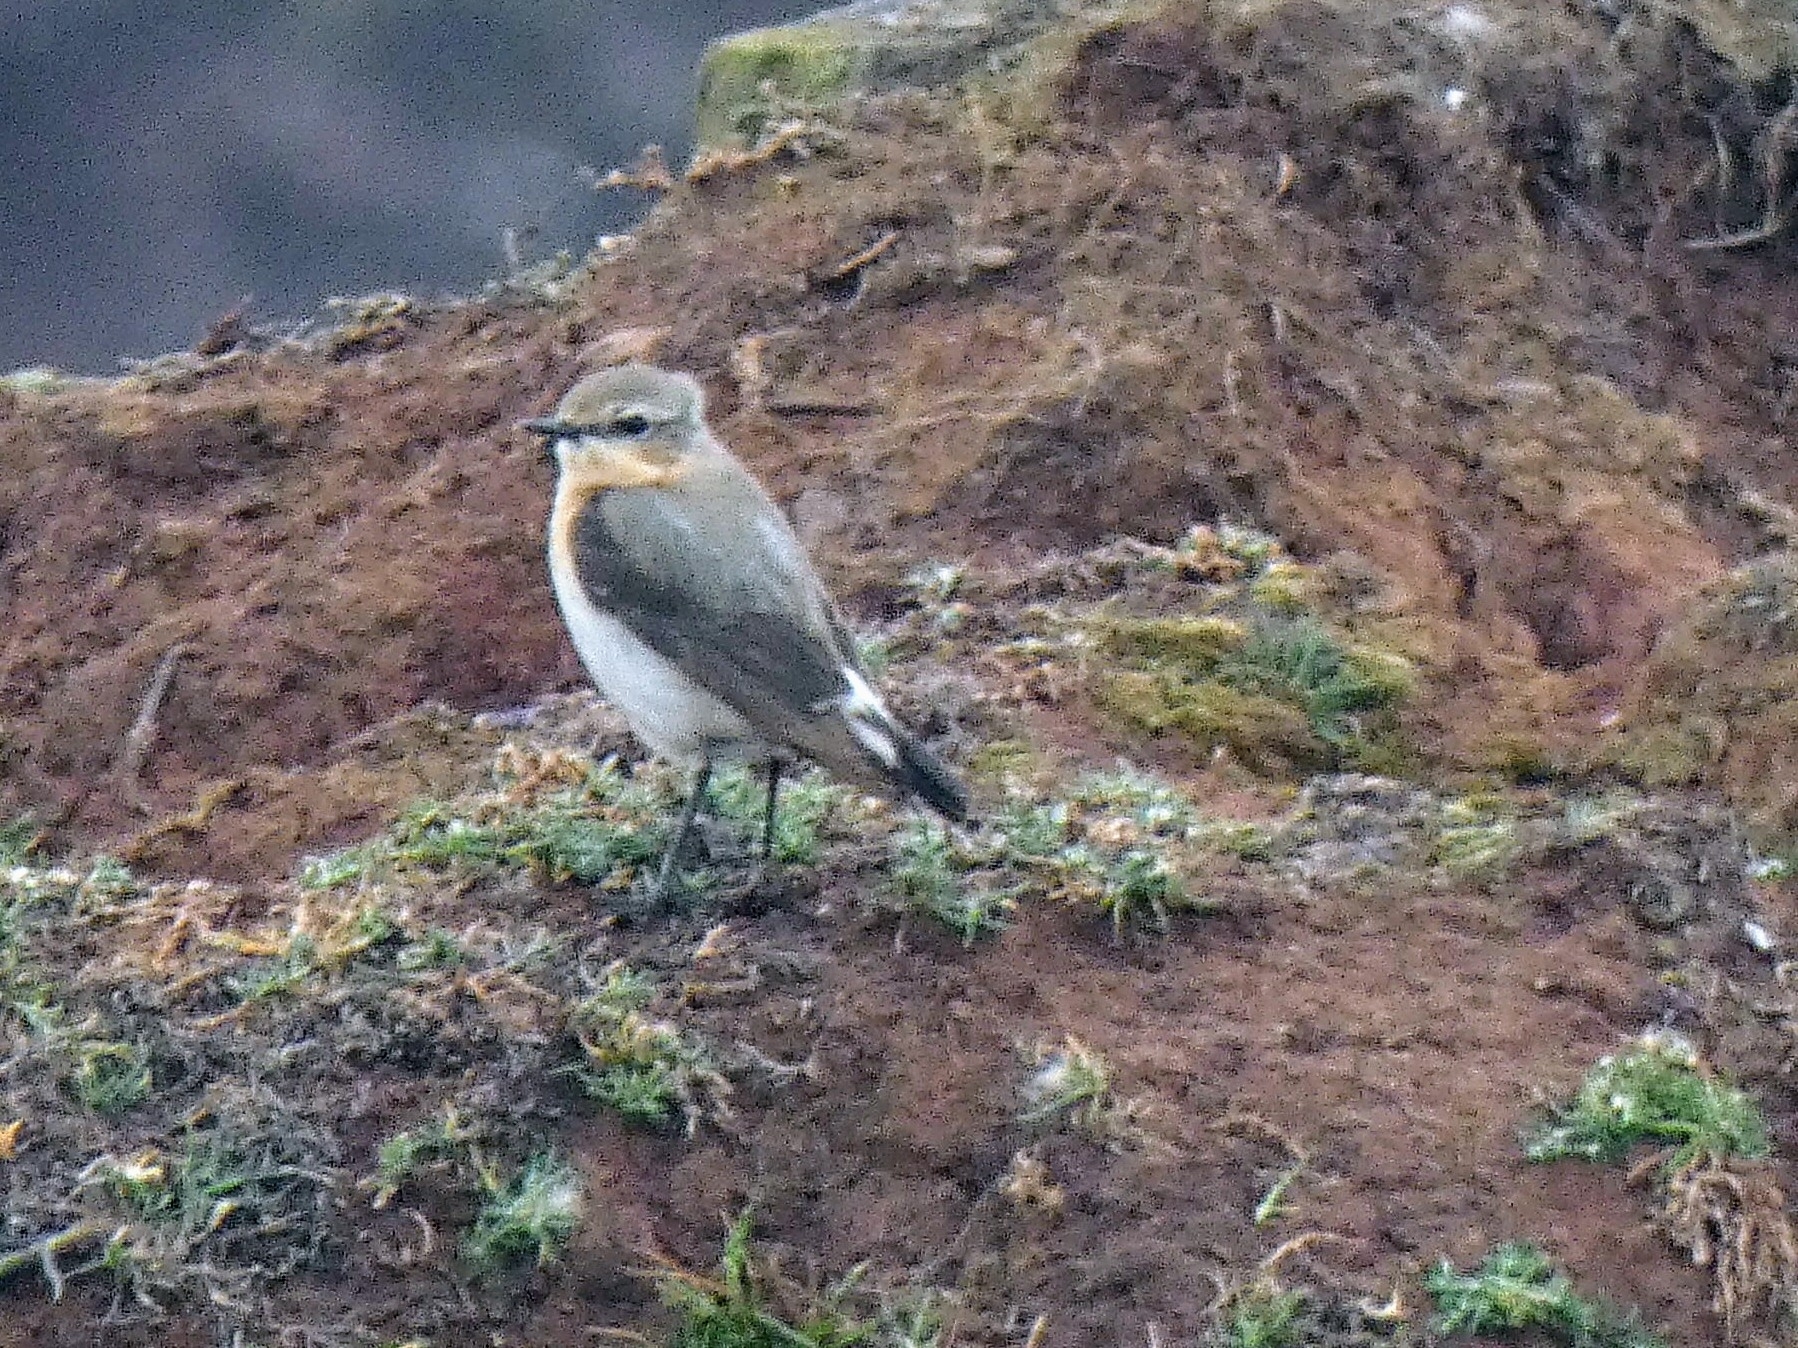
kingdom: Animalia
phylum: Chordata
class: Aves
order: Passeriformes
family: Muscicapidae
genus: Oenanthe
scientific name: Oenanthe oenanthe
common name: Northern wheatear
